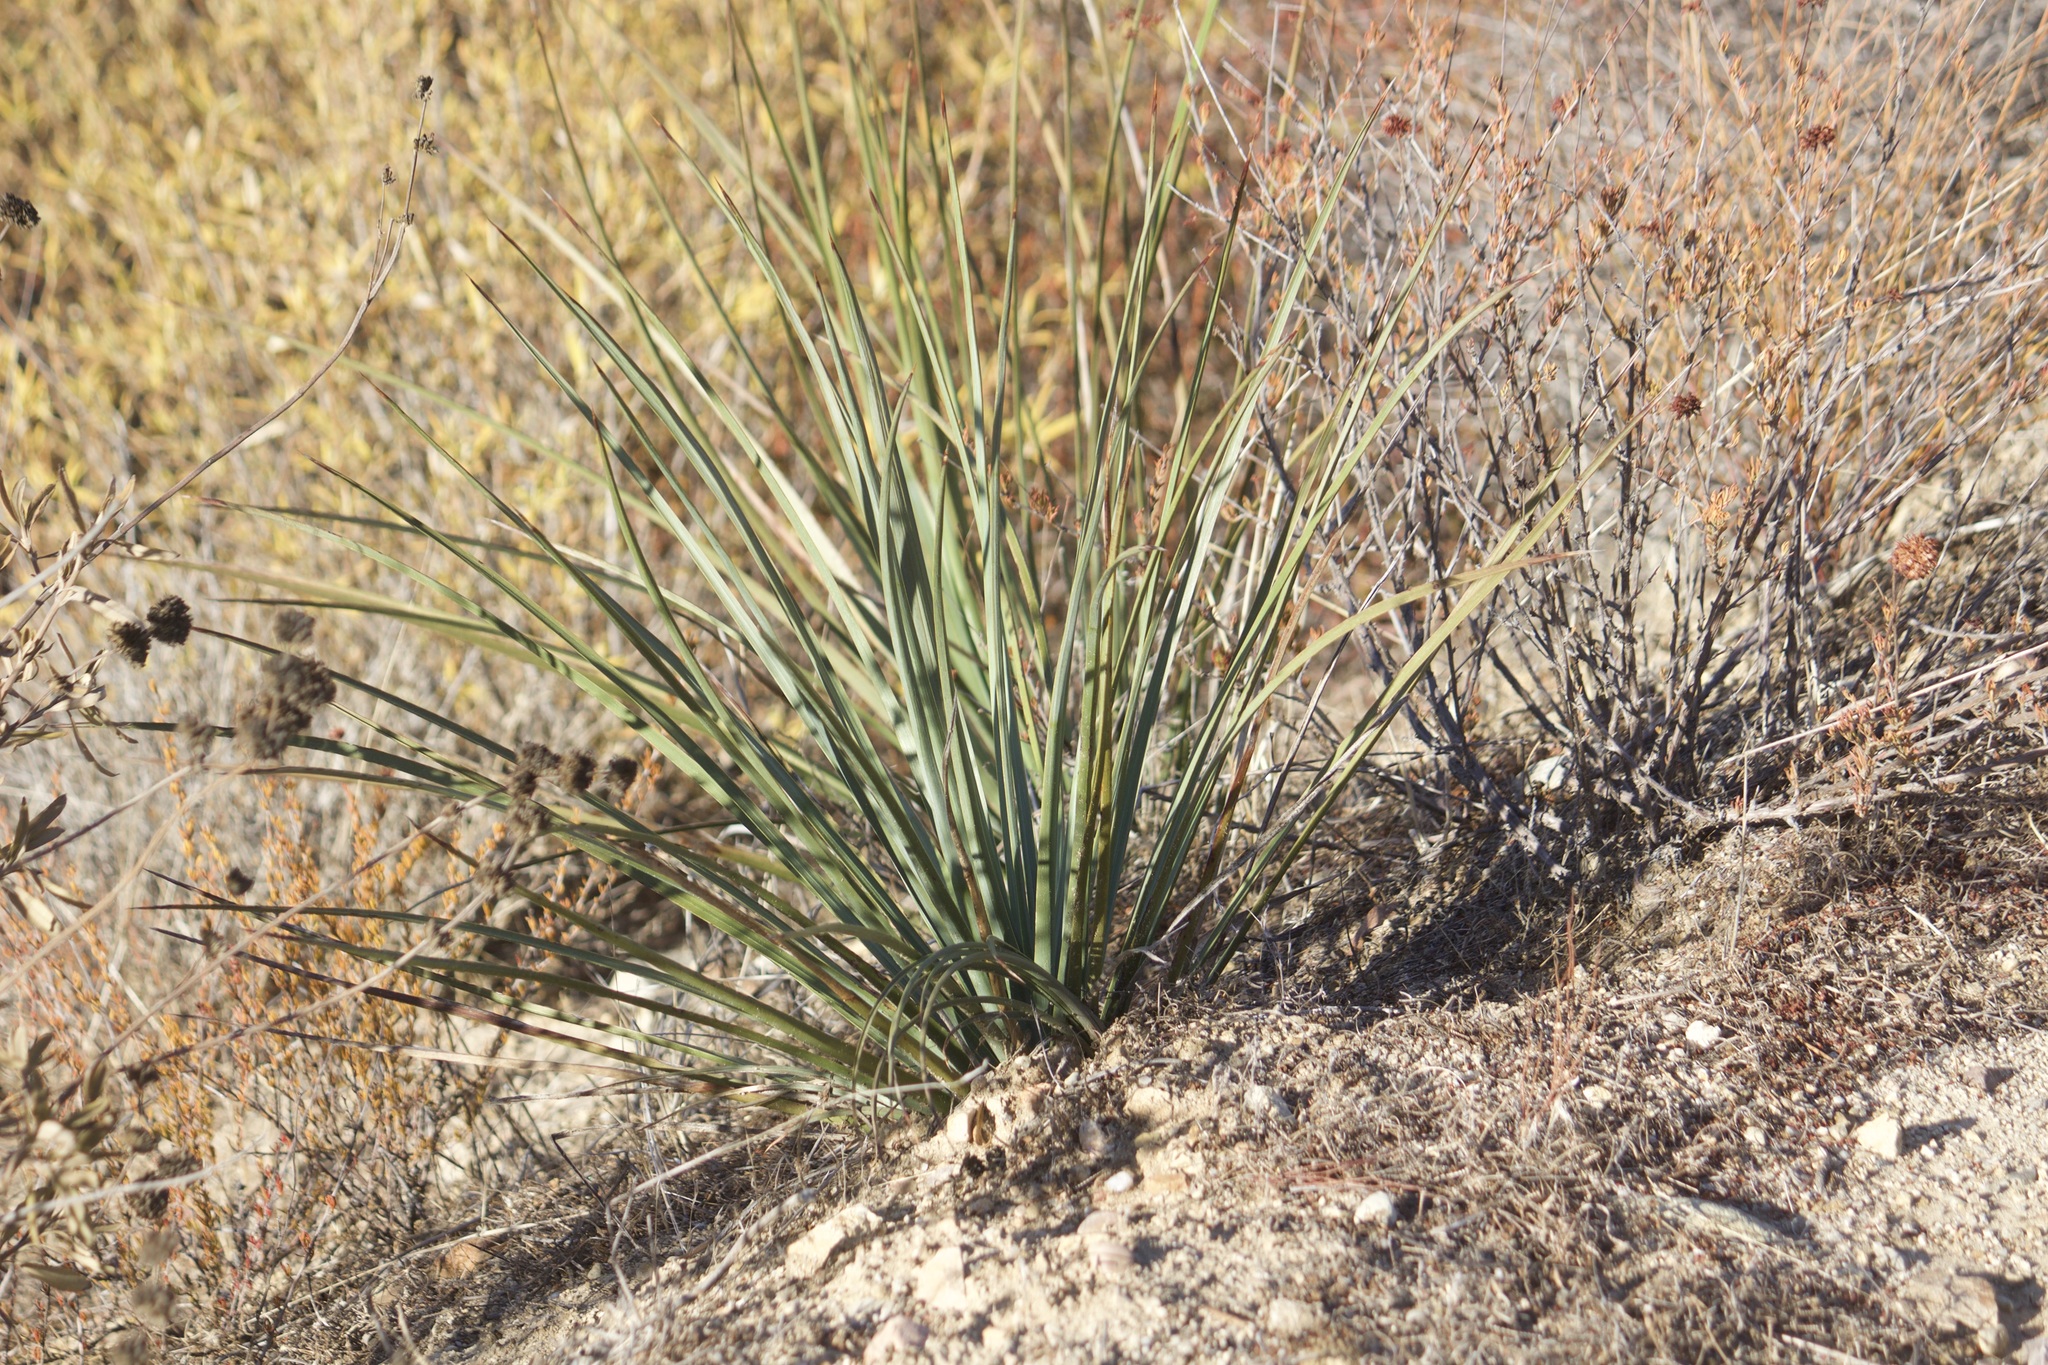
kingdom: Plantae
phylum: Tracheophyta
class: Liliopsida
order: Asparagales
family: Asparagaceae
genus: Hesperoyucca
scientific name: Hesperoyucca whipplei
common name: Our lord's-candle
